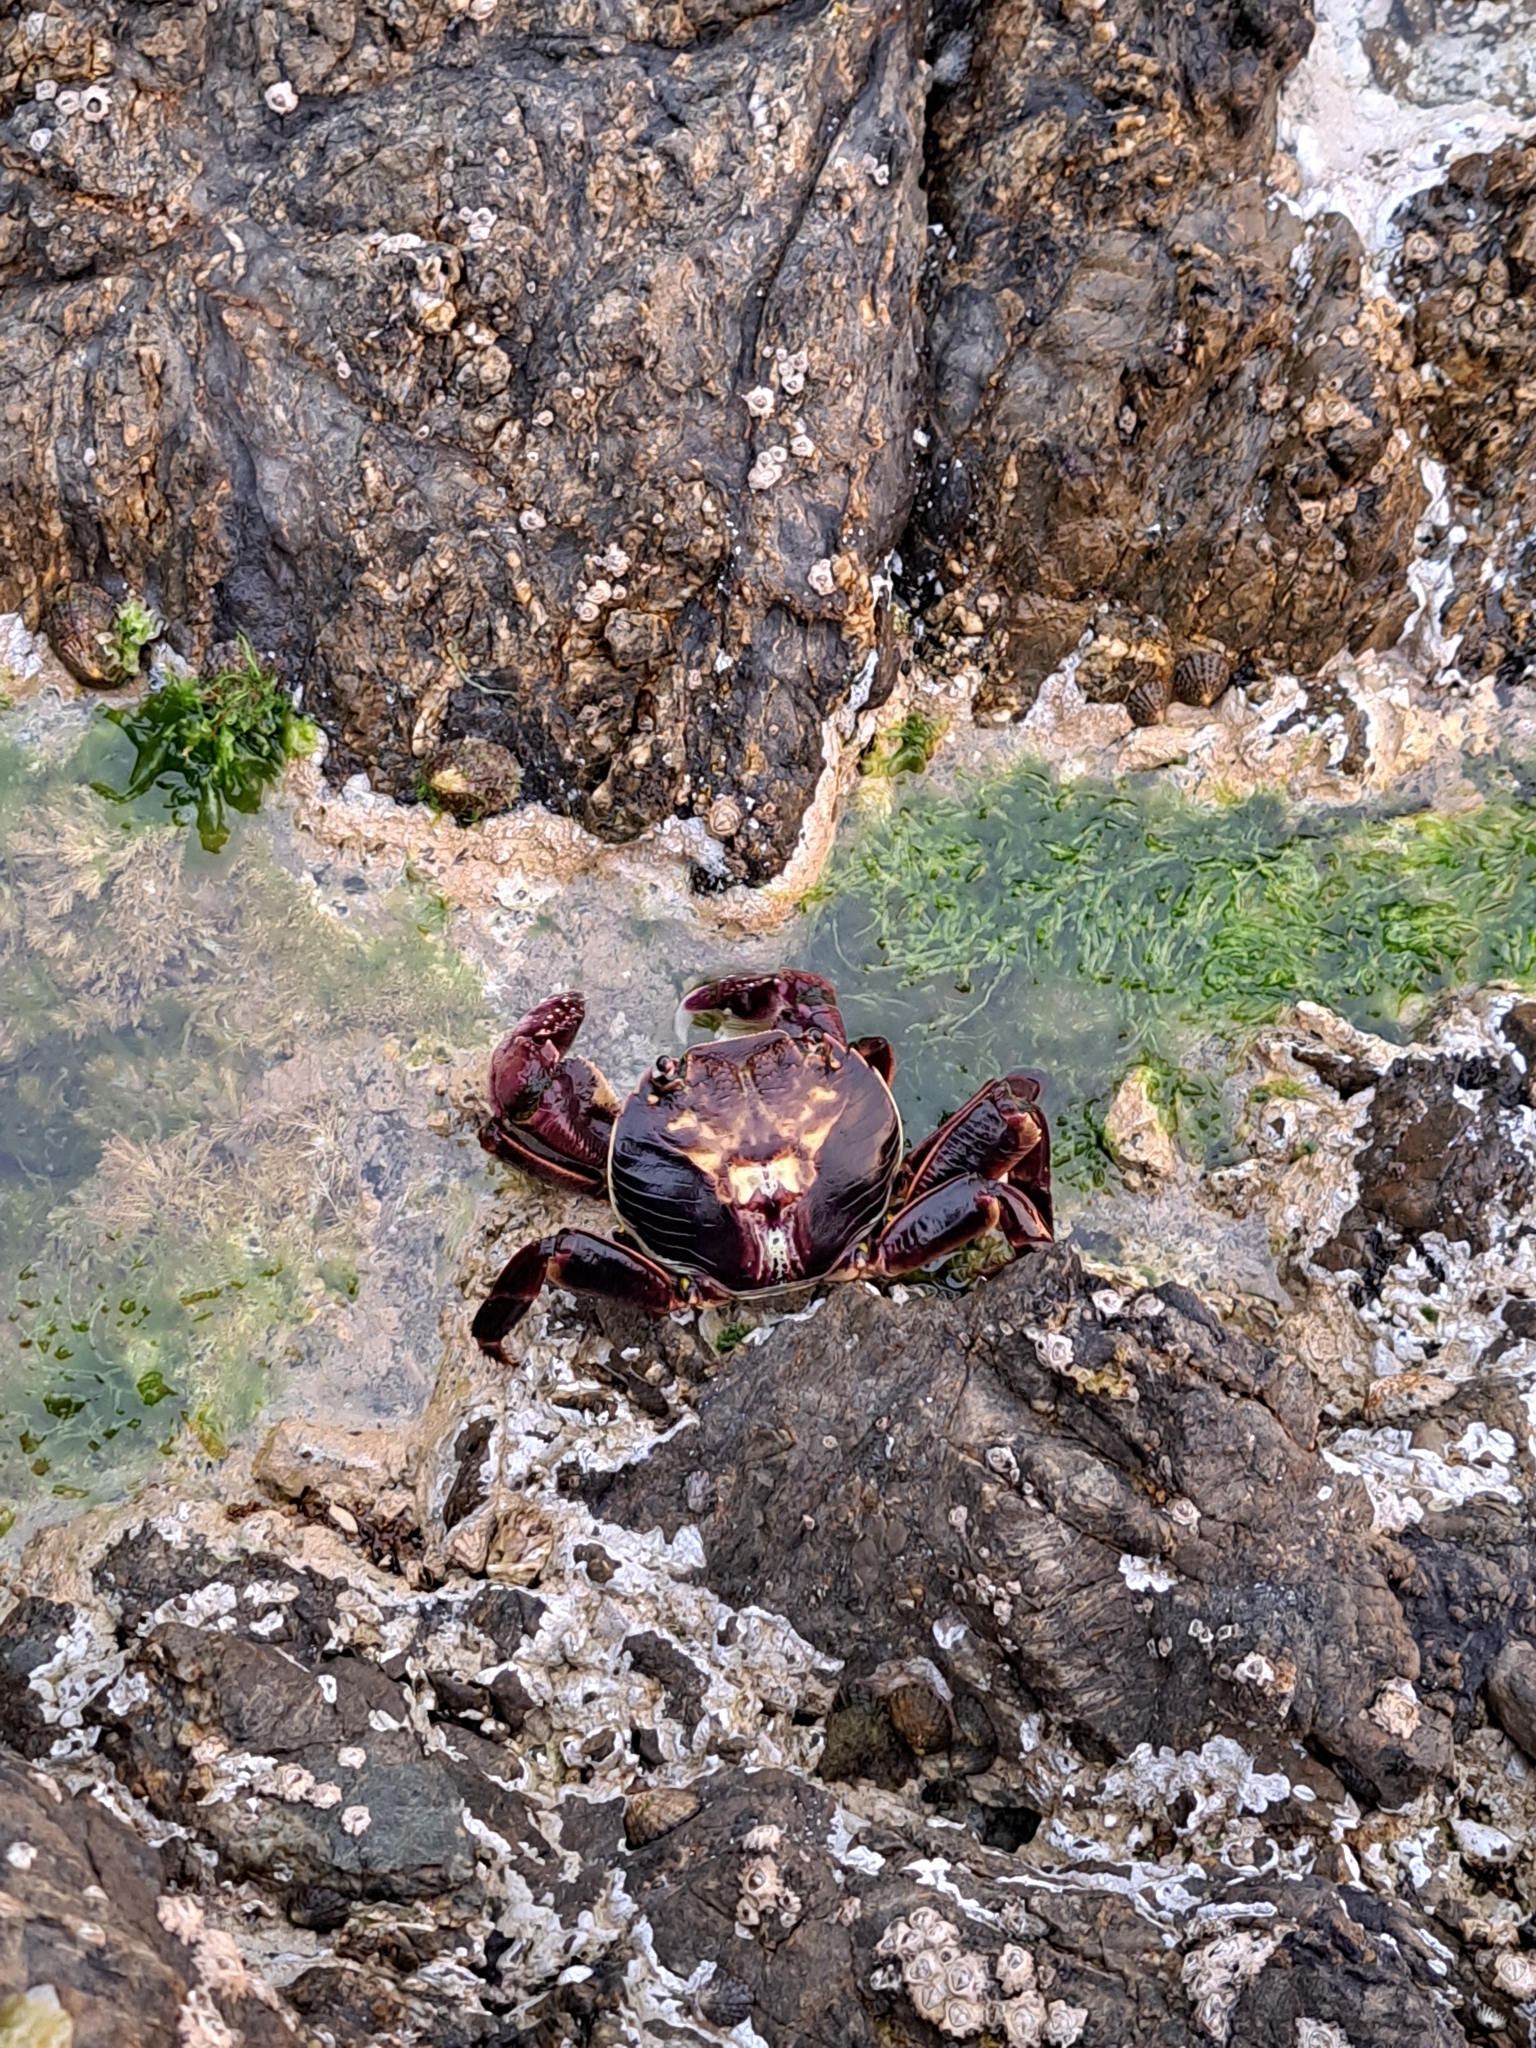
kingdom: Animalia
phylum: Arthropoda
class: Malacostraca
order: Decapoda
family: Grapsidae
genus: Leptograpsus
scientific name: Leptograpsus variegatus
